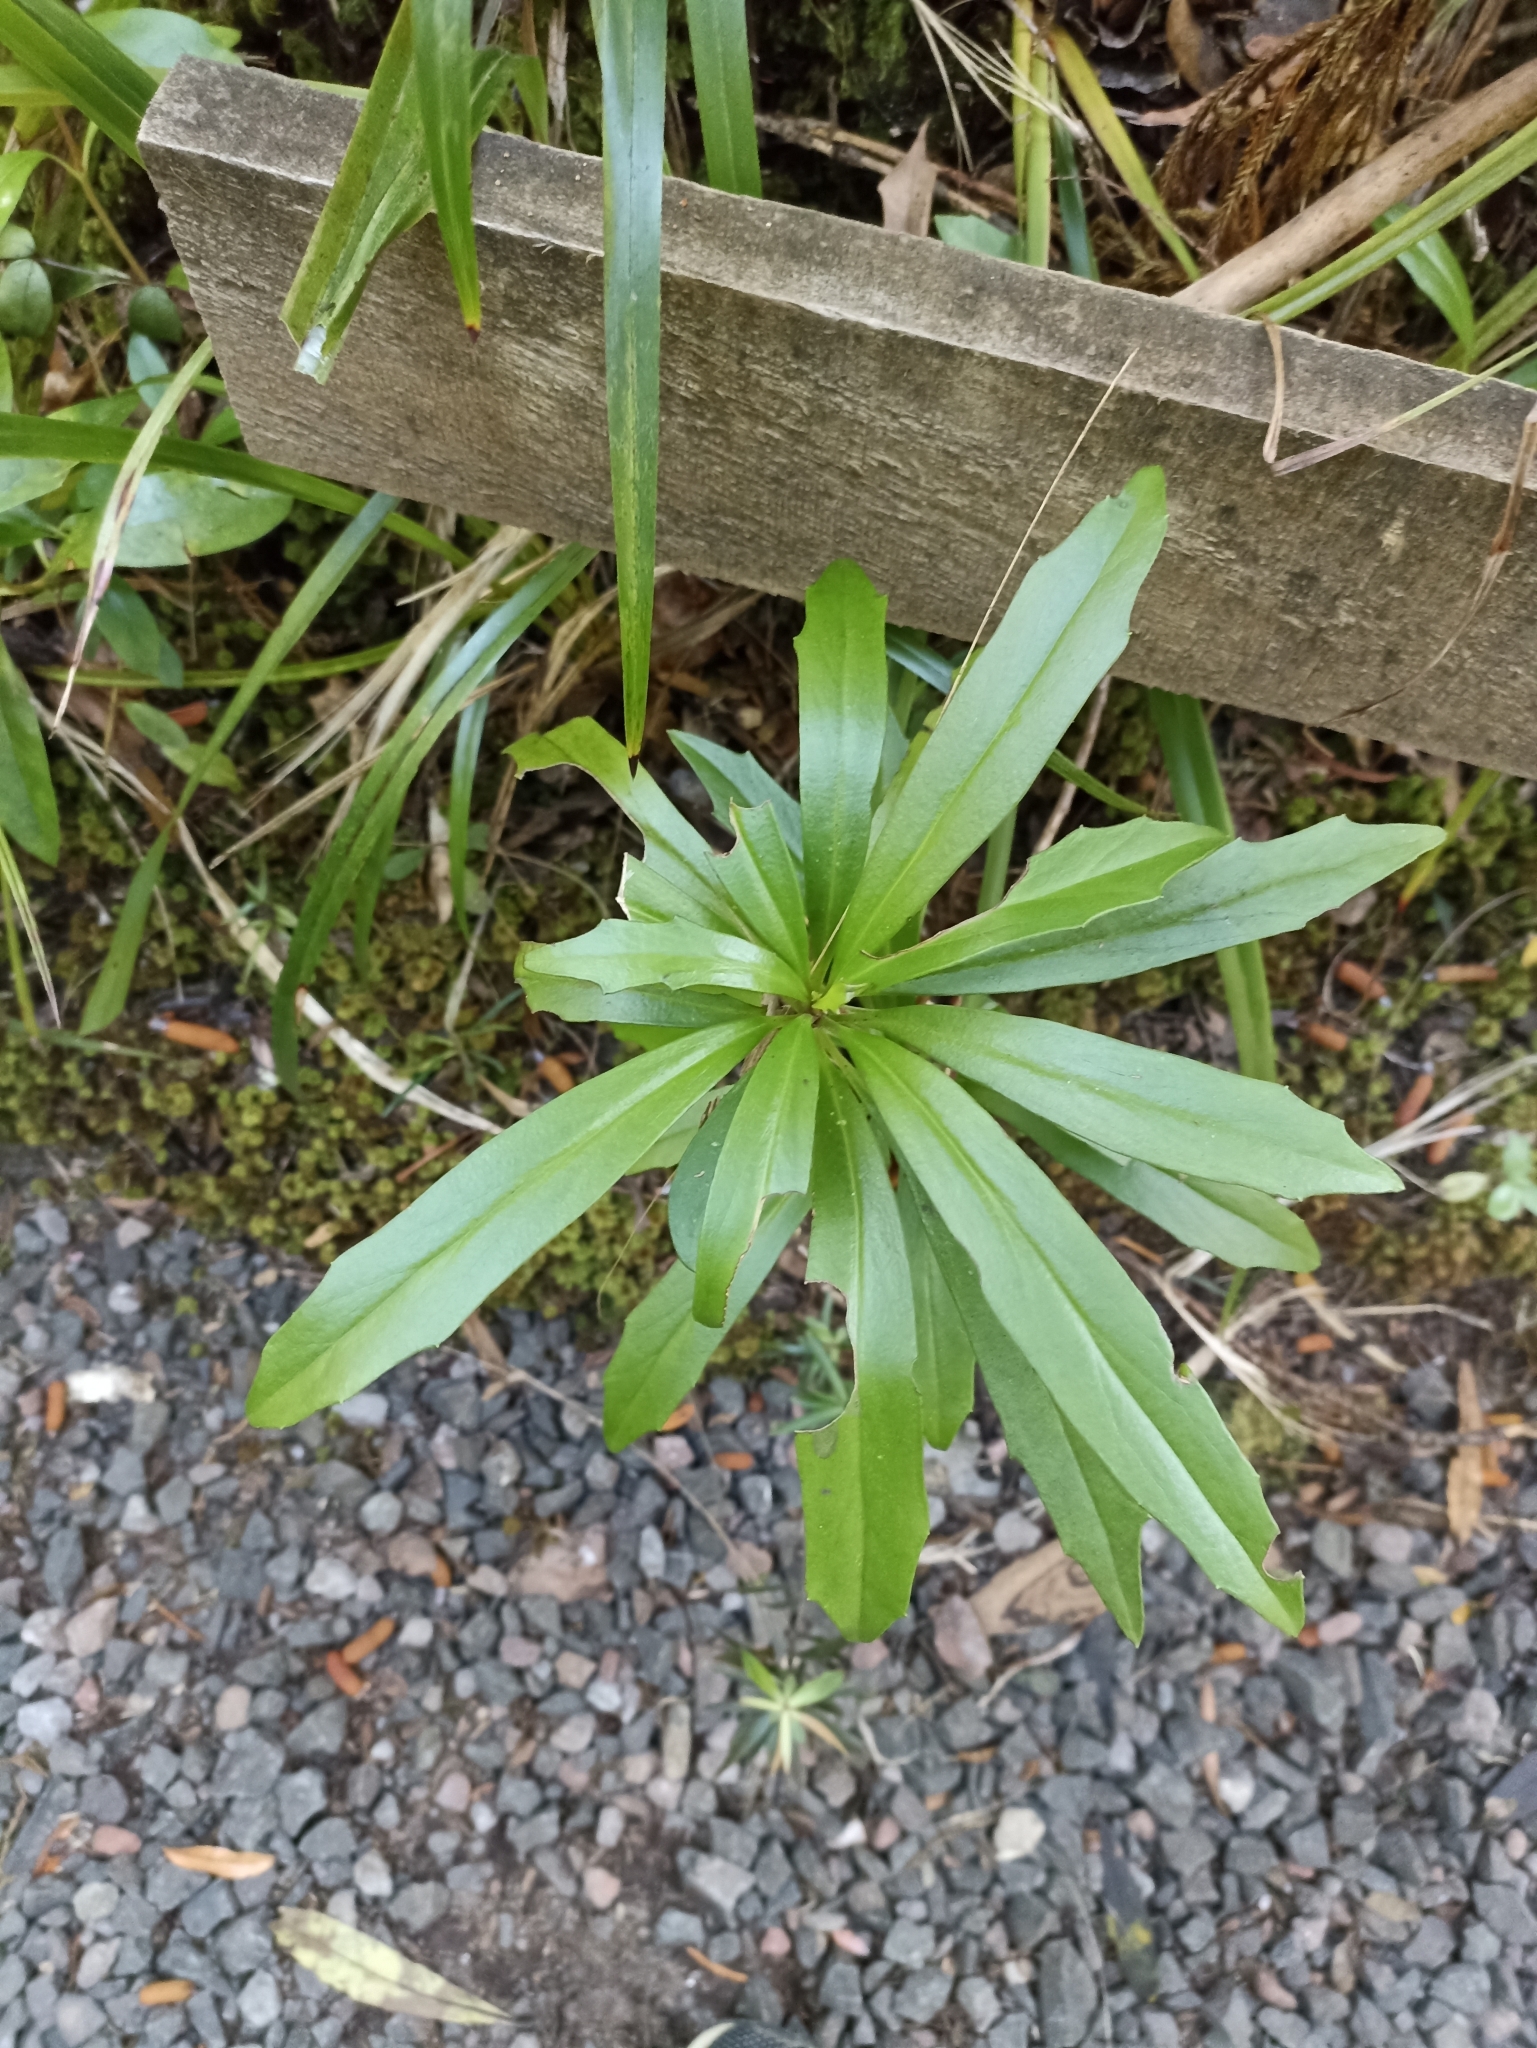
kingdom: Plantae
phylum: Tracheophyta
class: Magnoliopsida
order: Asterales
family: Asteraceae
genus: Brachyglottis
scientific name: Brachyglottis kirkii
